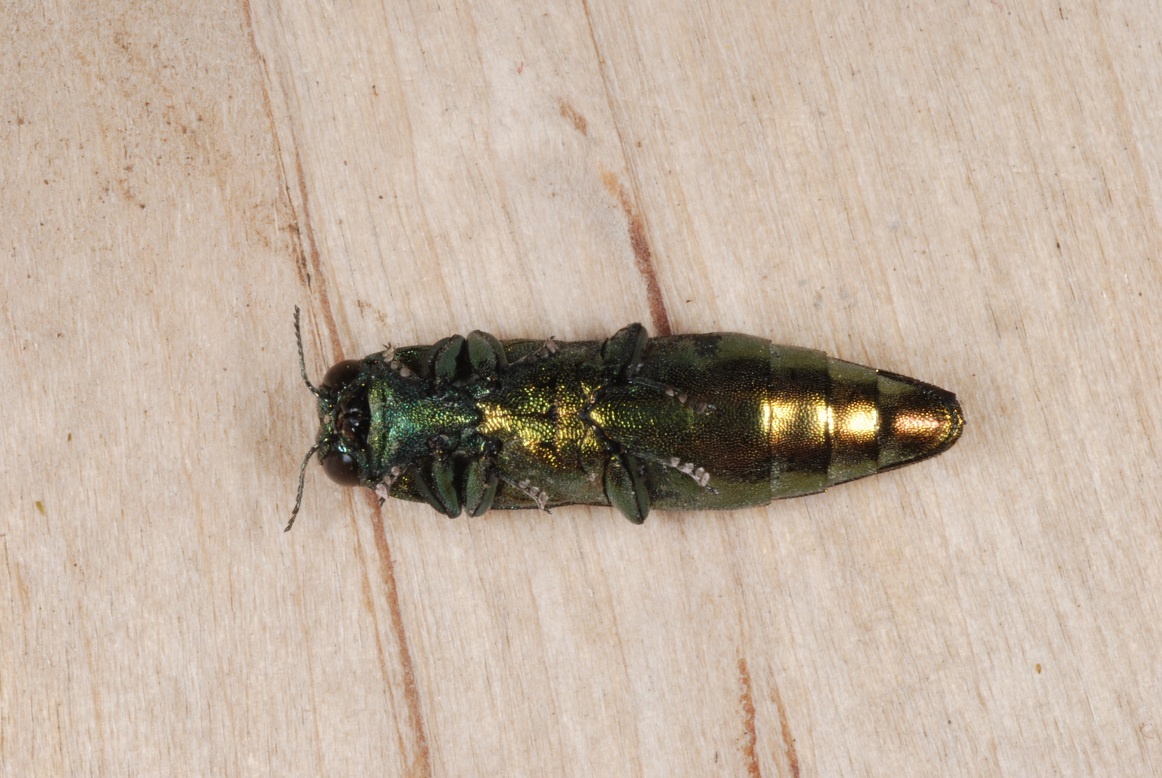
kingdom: Animalia
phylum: Arthropoda
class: Insecta
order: Coleoptera
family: Buprestidae
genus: Agrilus
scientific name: Agrilus planipennis
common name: Emerald ash borer
